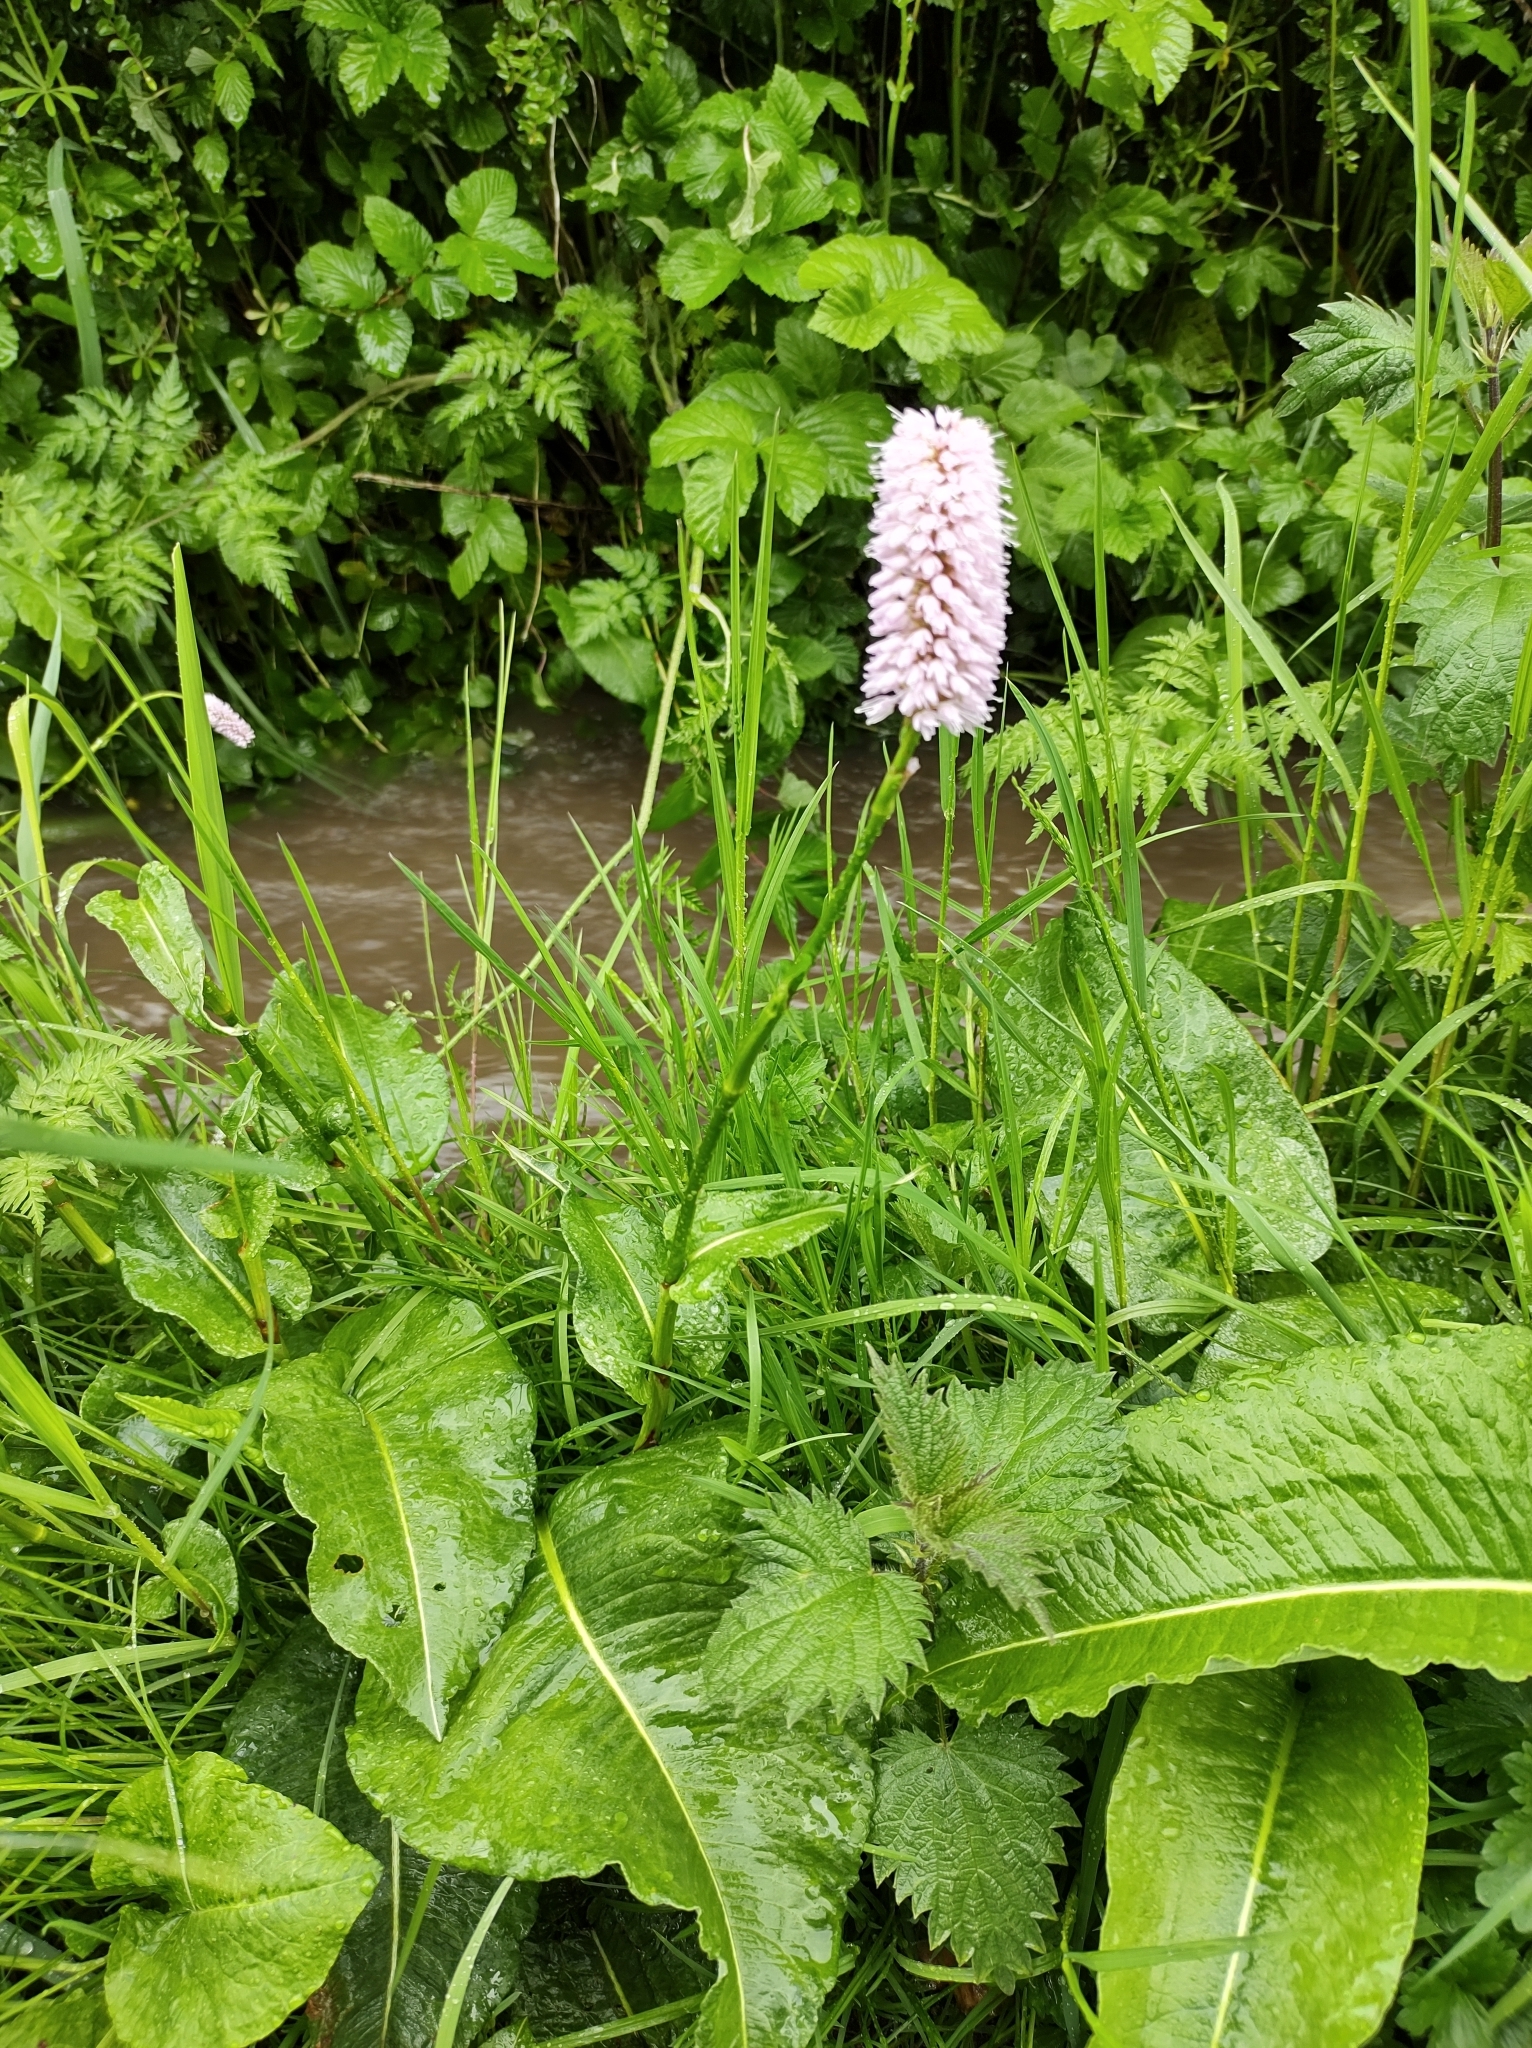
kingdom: Plantae
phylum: Tracheophyta
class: Magnoliopsida
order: Caryophyllales
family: Polygonaceae
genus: Bistorta
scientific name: Bistorta officinalis
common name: Common bistort
